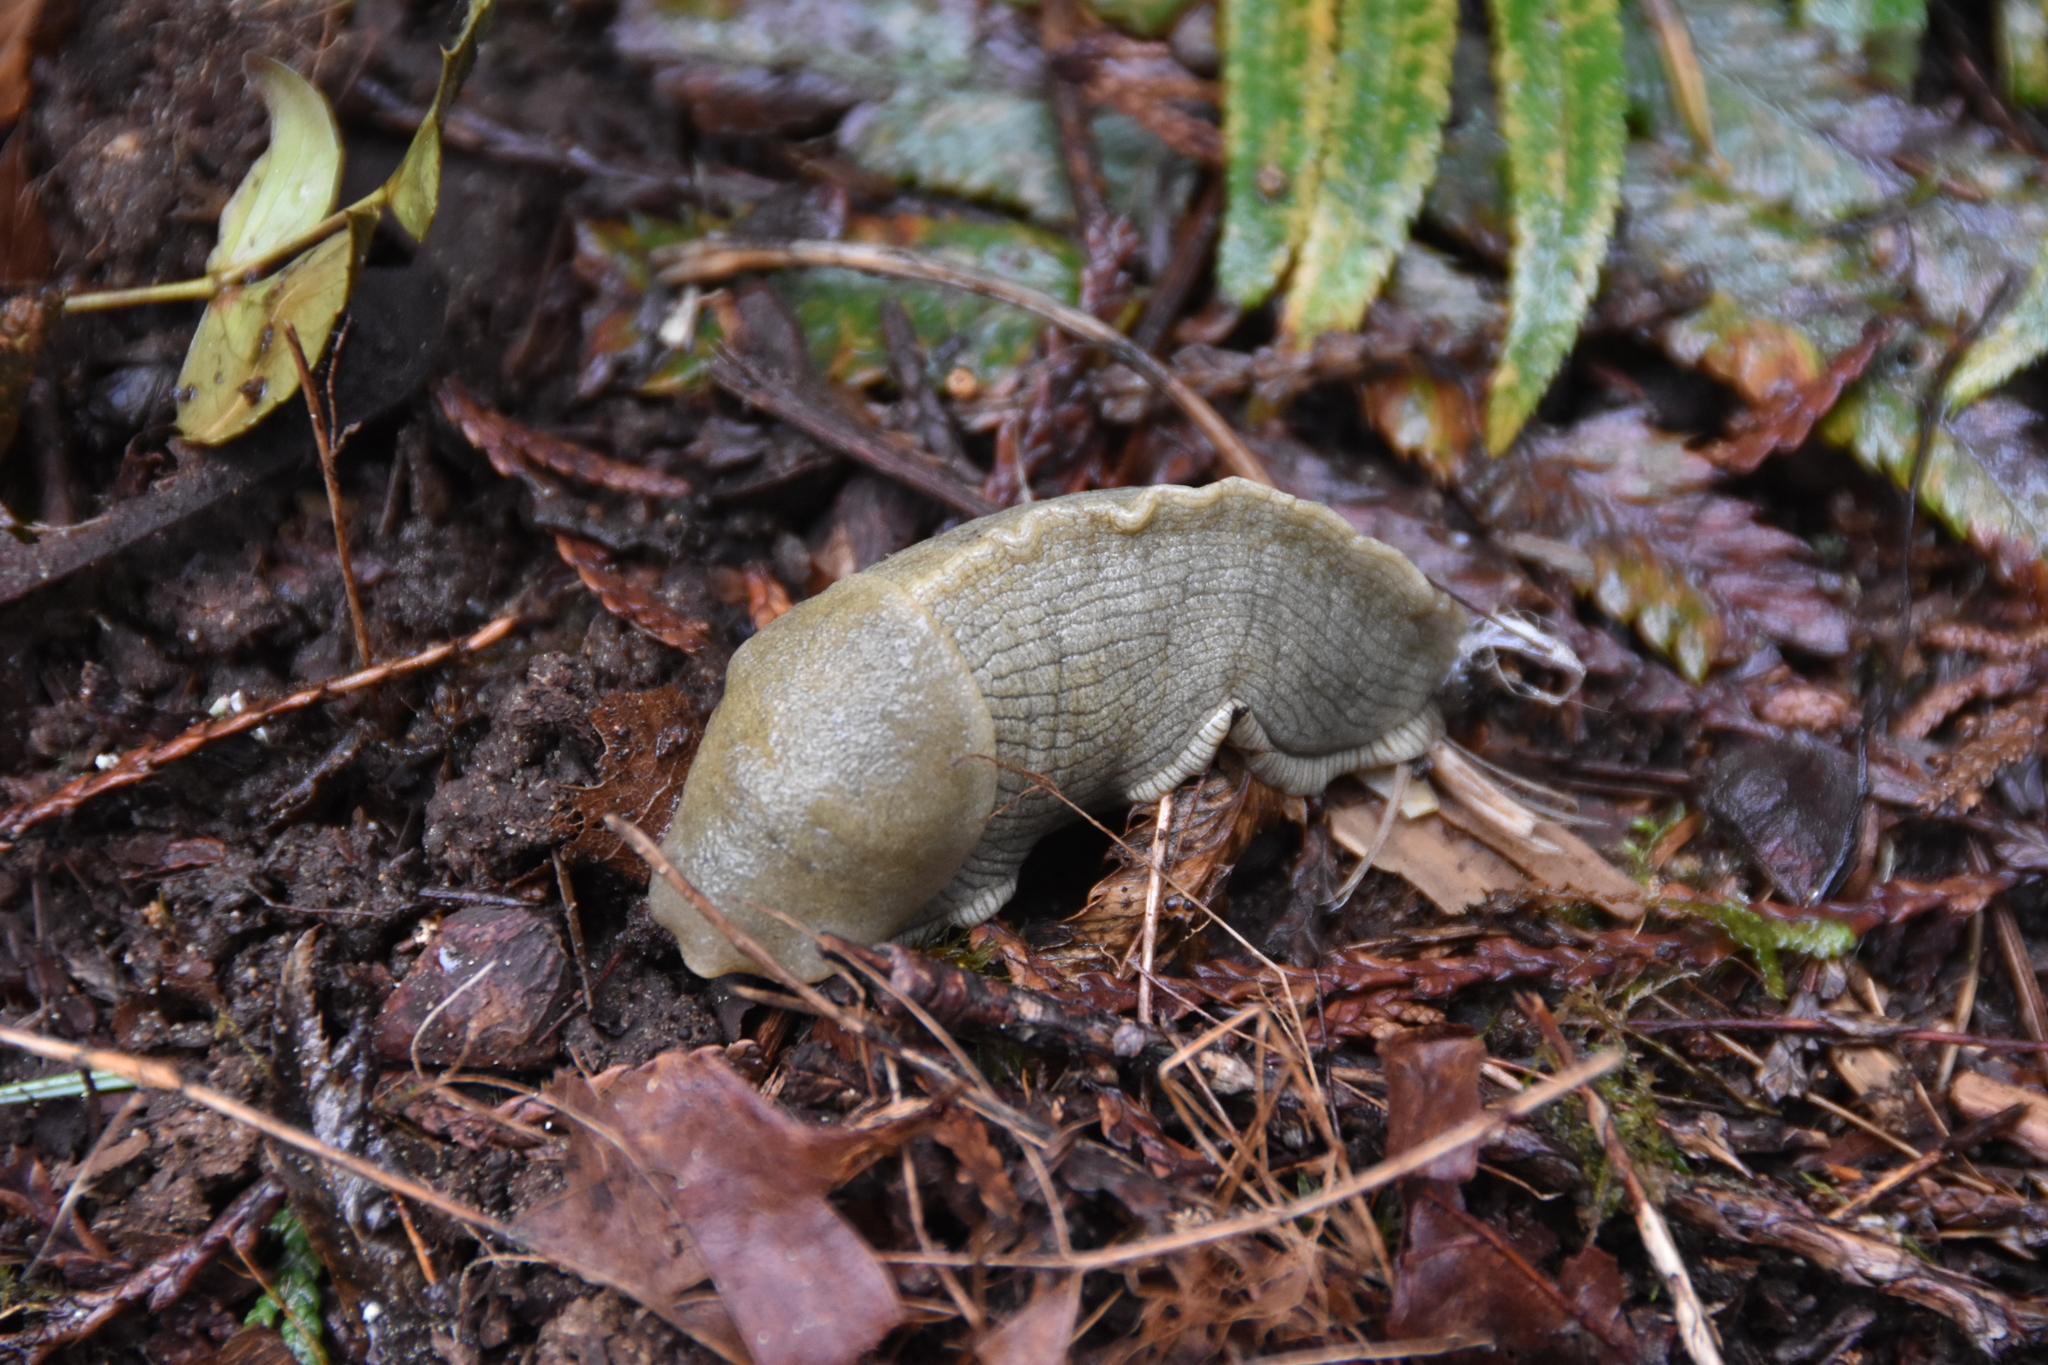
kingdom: Animalia
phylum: Mollusca
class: Gastropoda
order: Stylommatophora
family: Ariolimacidae
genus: Ariolimax
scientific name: Ariolimax columbianus
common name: Pacific banana slug
